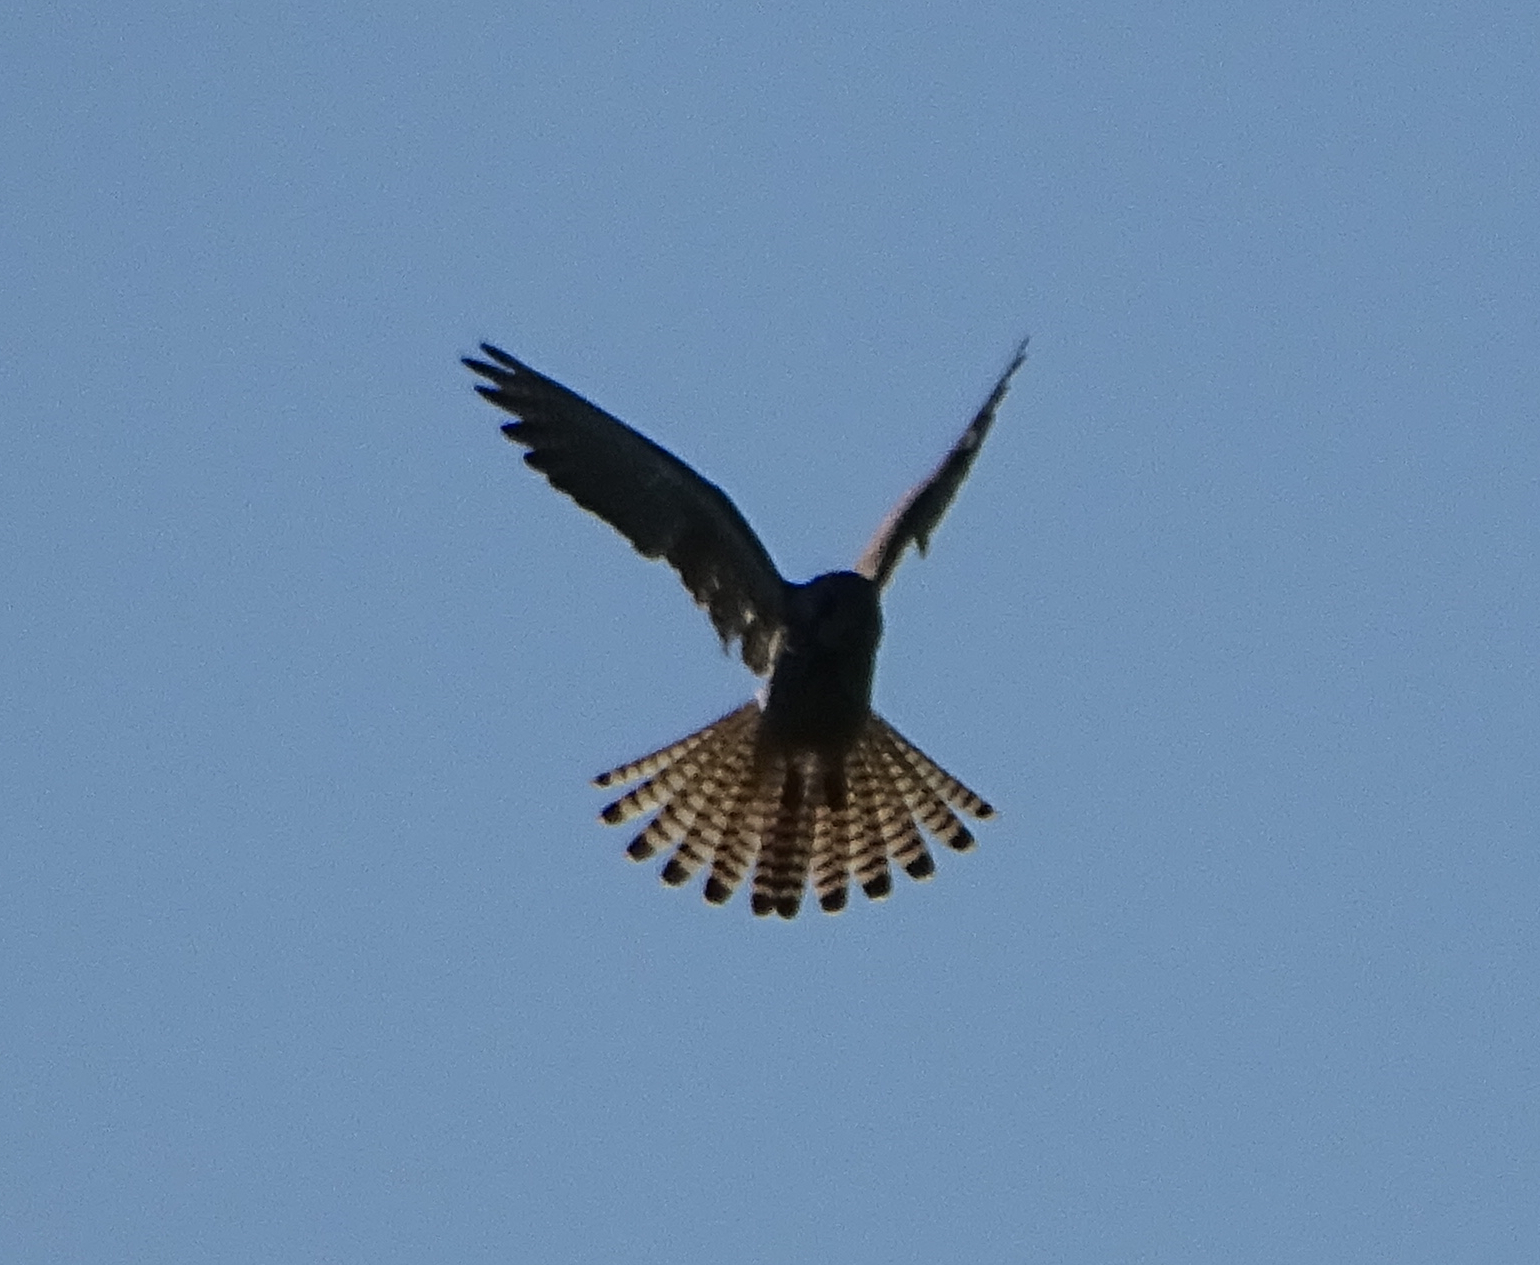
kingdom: Animalia
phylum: Chordata
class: Aves
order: Falconiformes
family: Falconidae
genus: Falco
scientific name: Falco tinnunculus
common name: Common kestrel
